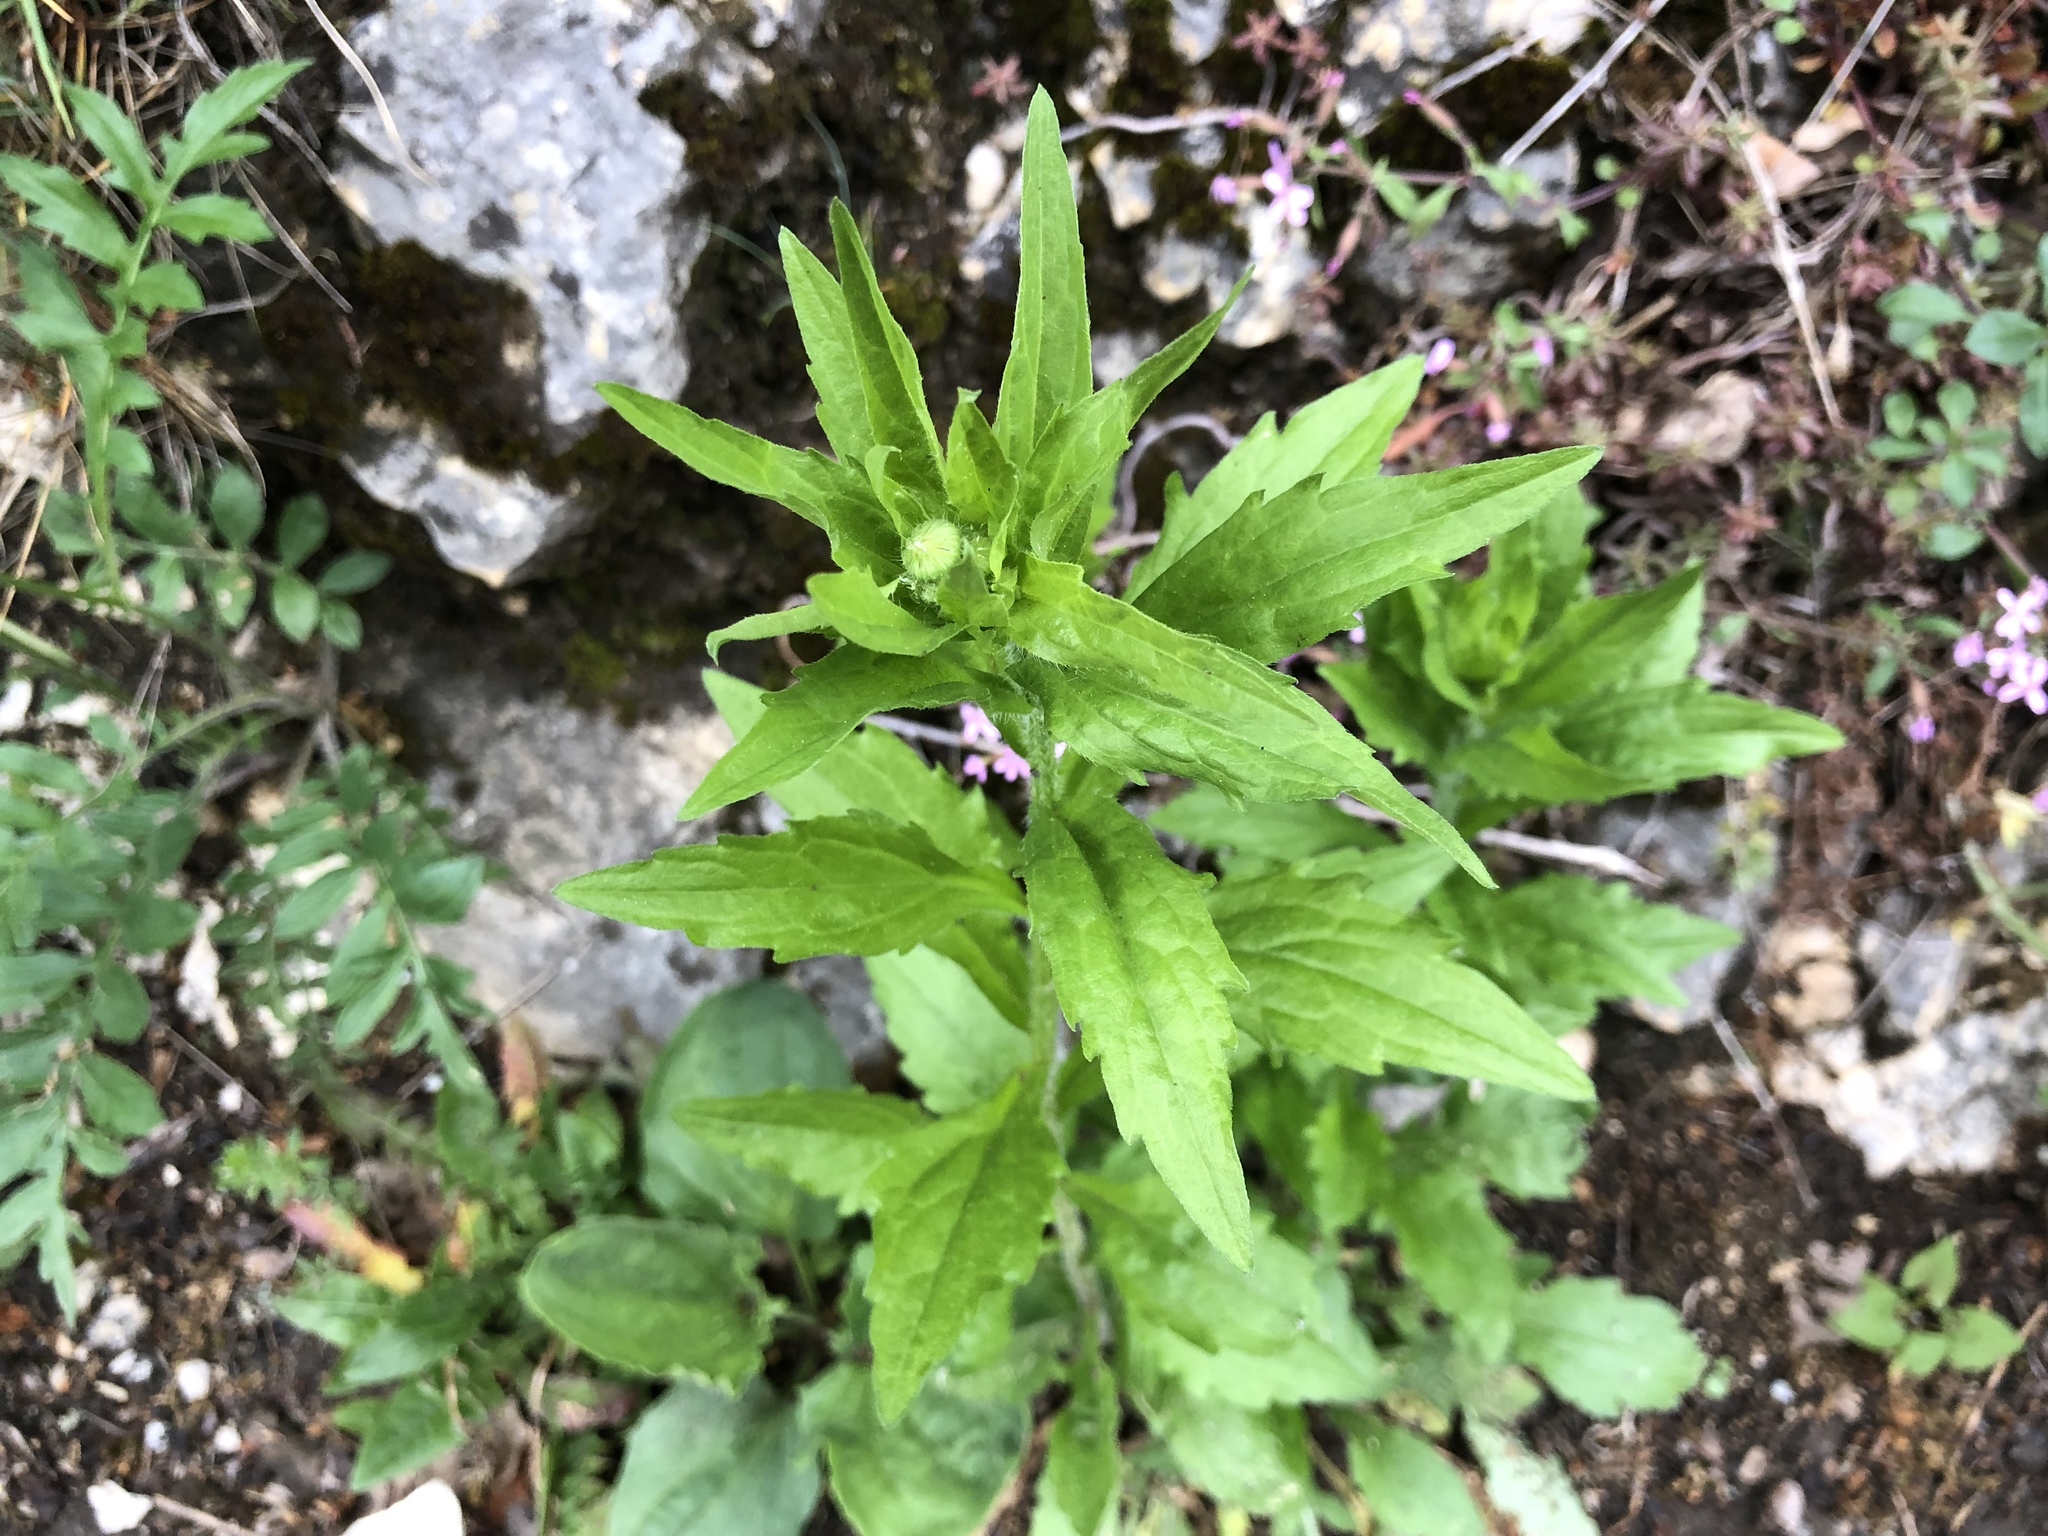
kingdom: Plantae
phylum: Tracheophyta
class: Magnoliopsida
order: Asterales
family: Asteraceae
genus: Erigeron
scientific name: Erigeron annuus
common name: Tall fleabane
